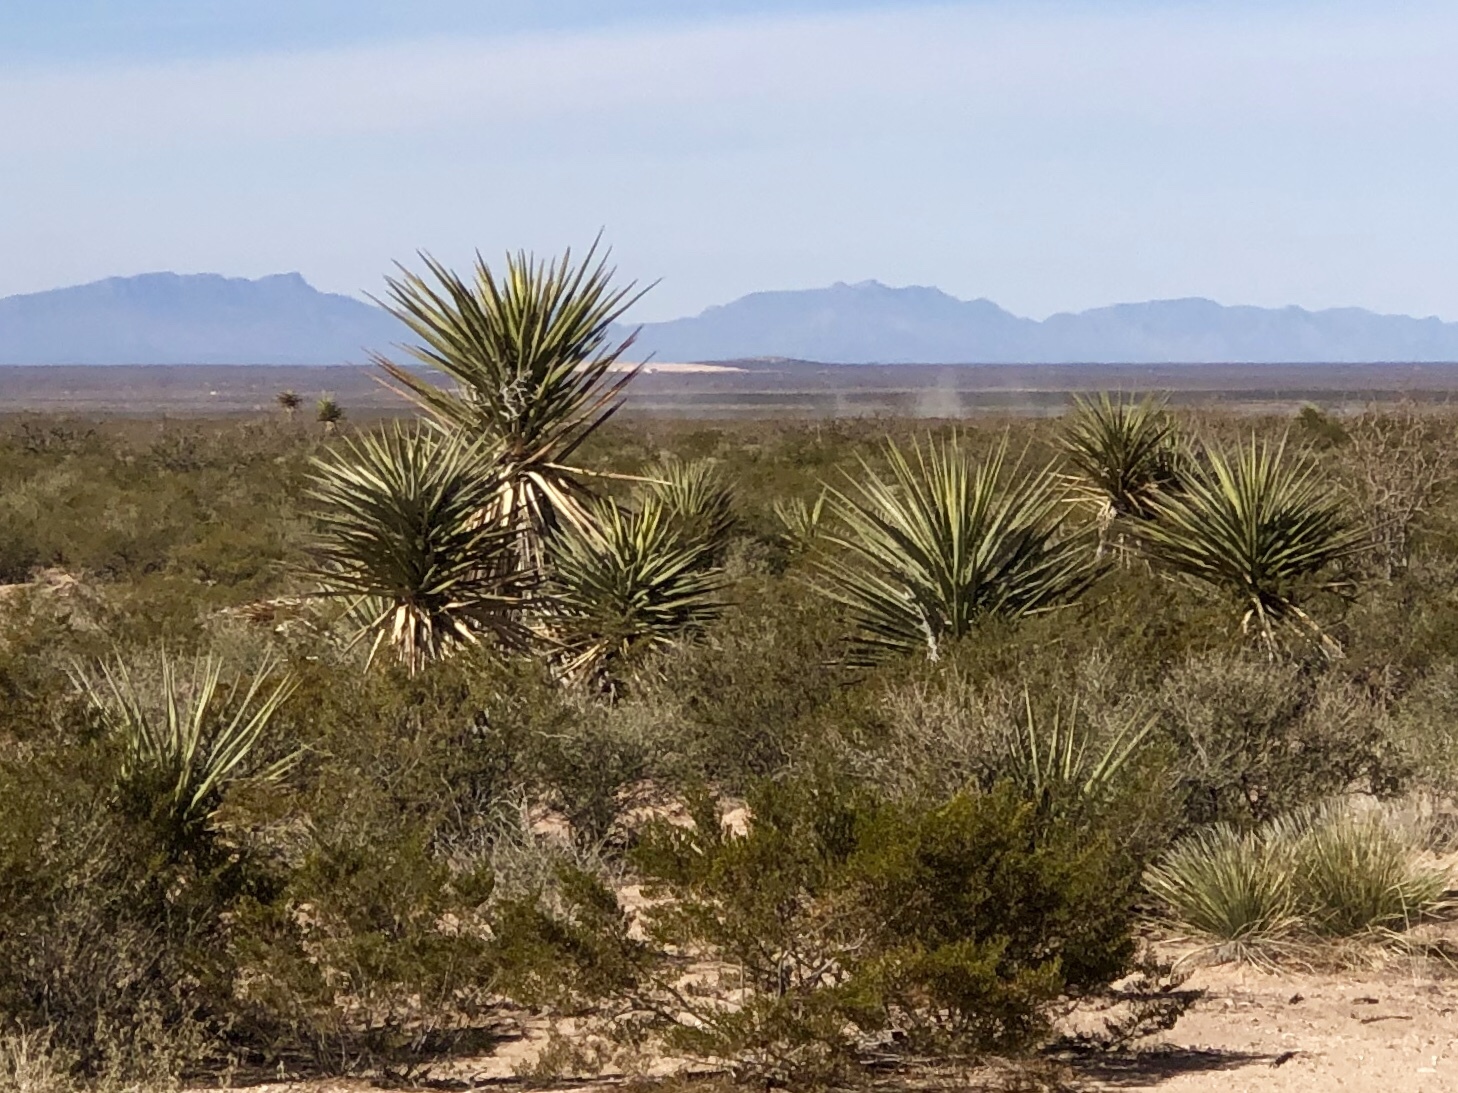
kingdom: Plantae
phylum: Tracheophyta
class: Liliopsida
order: Asparagales
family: Asparagaceae
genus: Yucca
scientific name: Yucca treculiana
